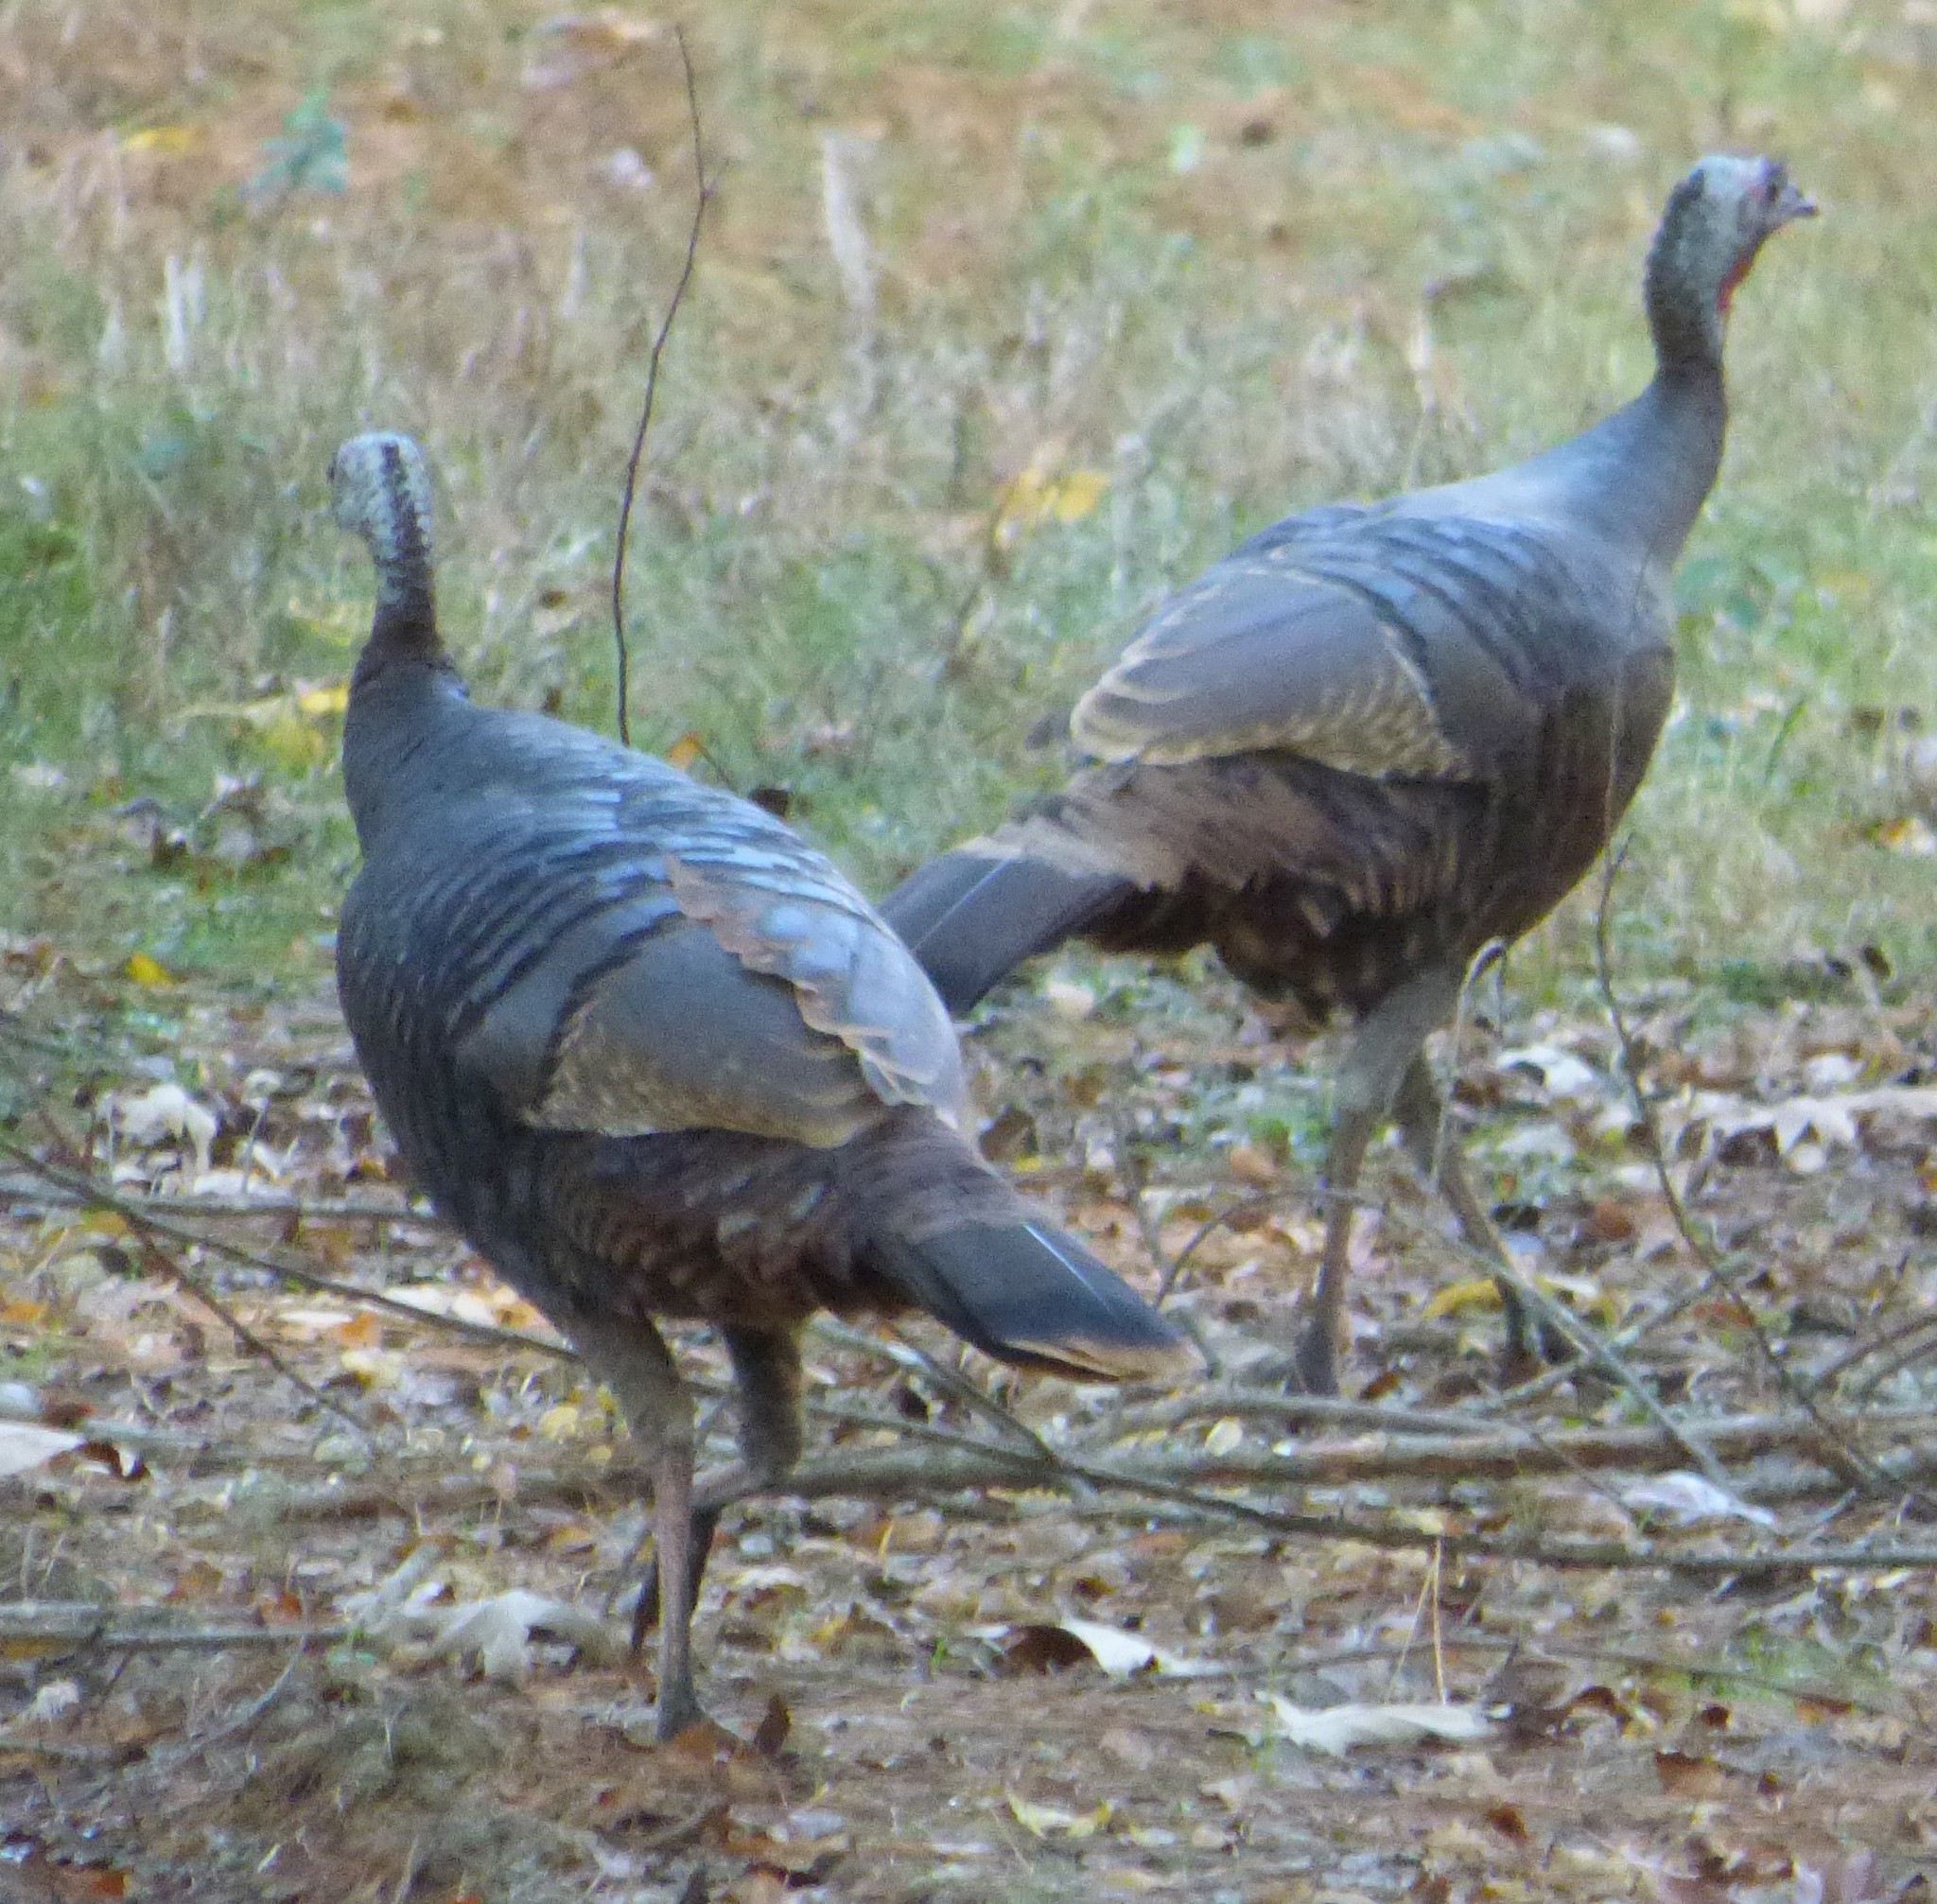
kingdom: Animalia
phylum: Chordata
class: Aves
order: Galliformes
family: Phasianidae
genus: Meleagris
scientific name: Meleagris gallopavo
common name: Wild turkey
